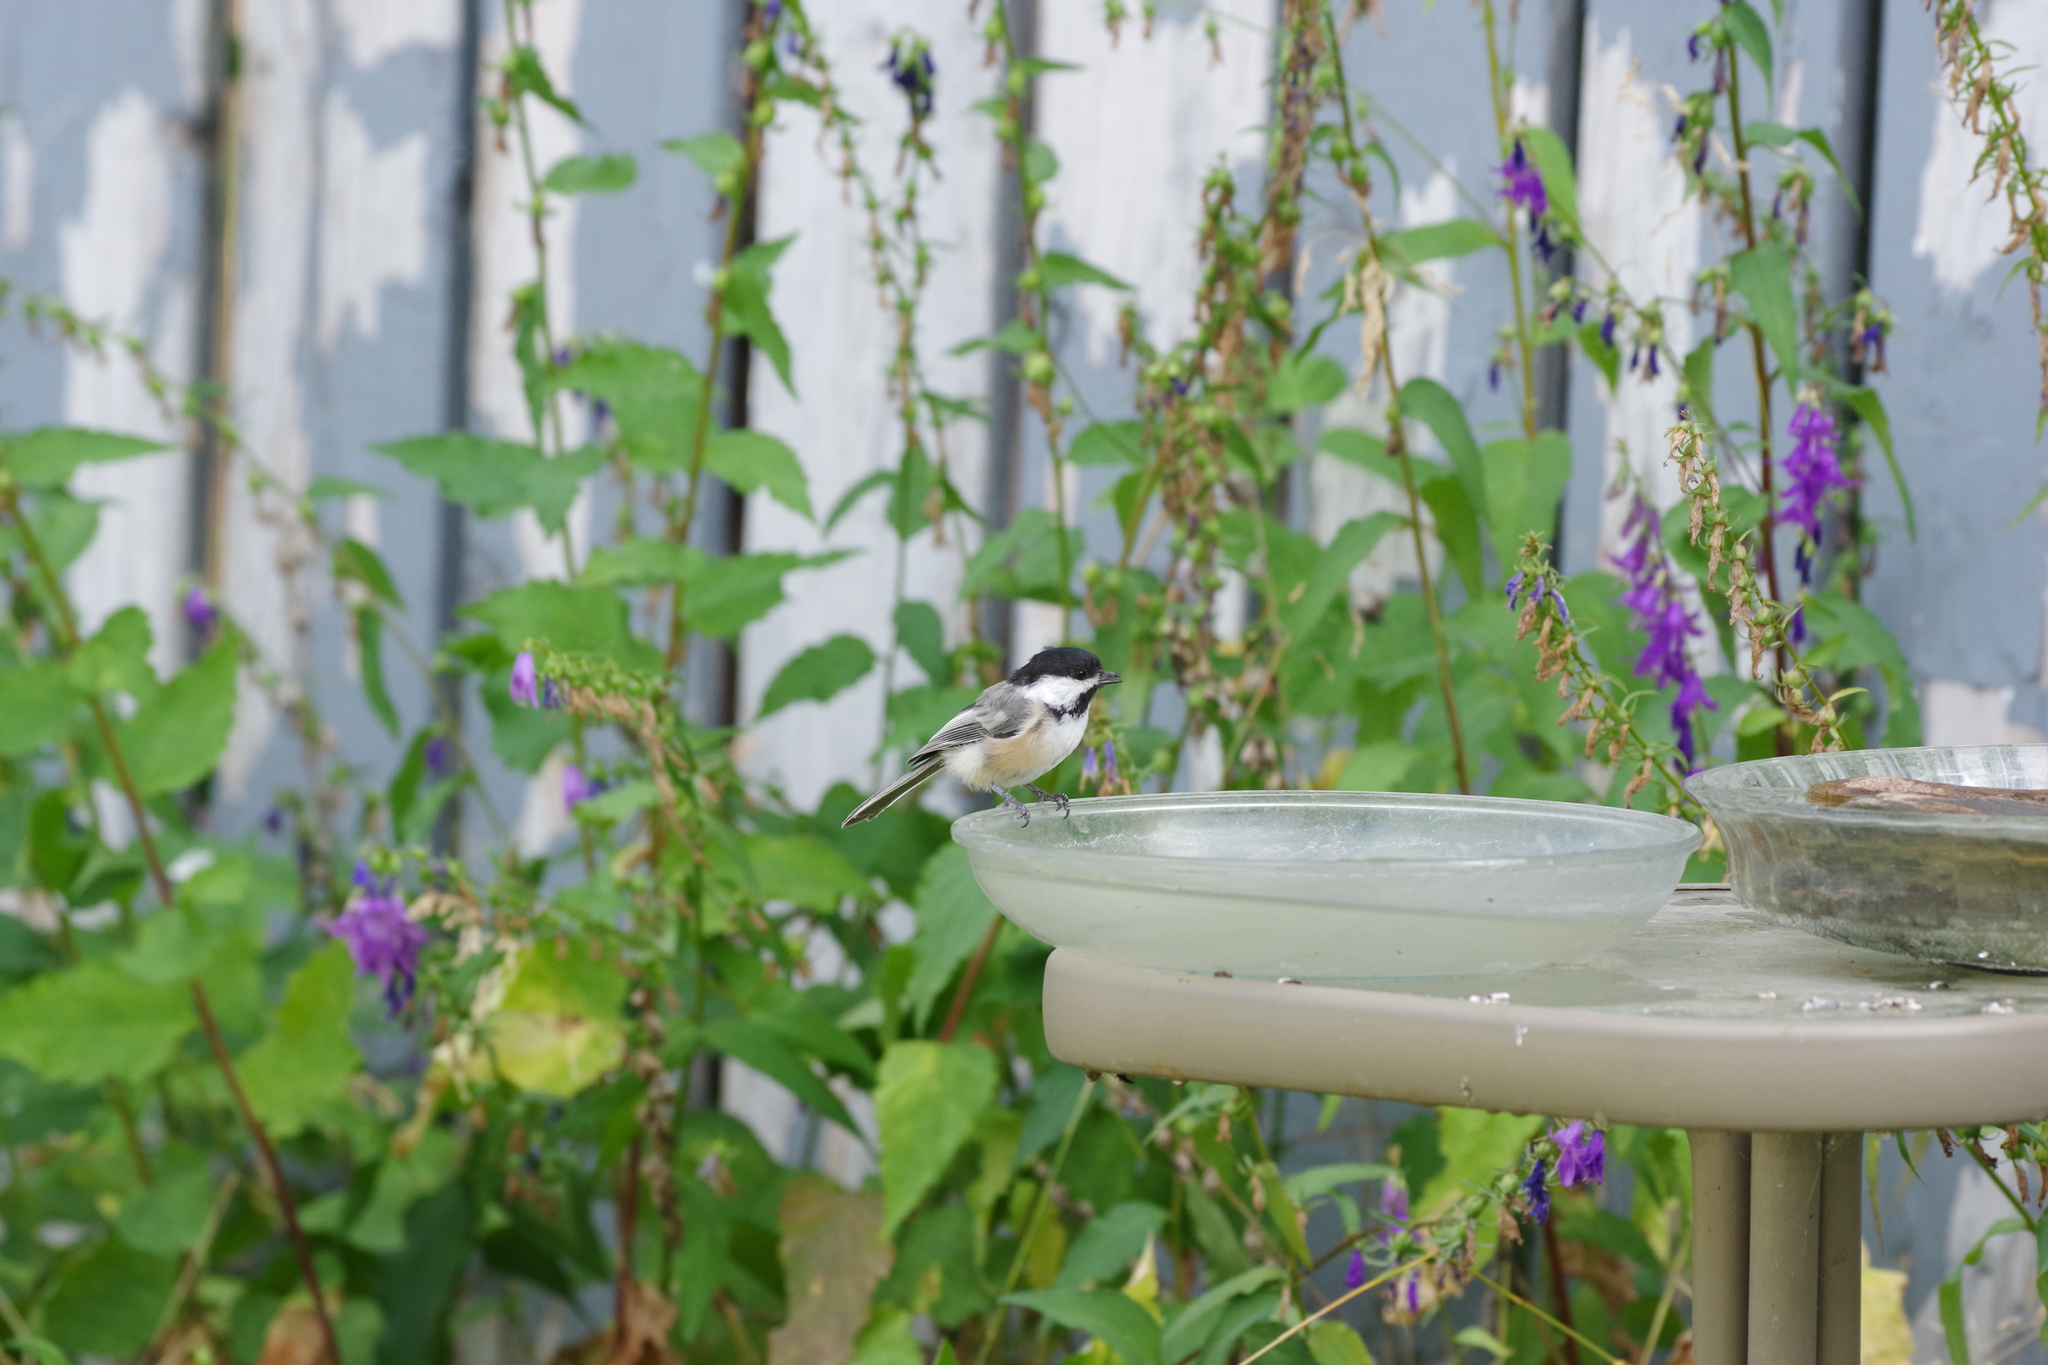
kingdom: Animalia
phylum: Chordata
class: Aves
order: Passeriformes
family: Paridae
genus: Poecile
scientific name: Poecile atricapillus
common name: Black-capped chickadee
